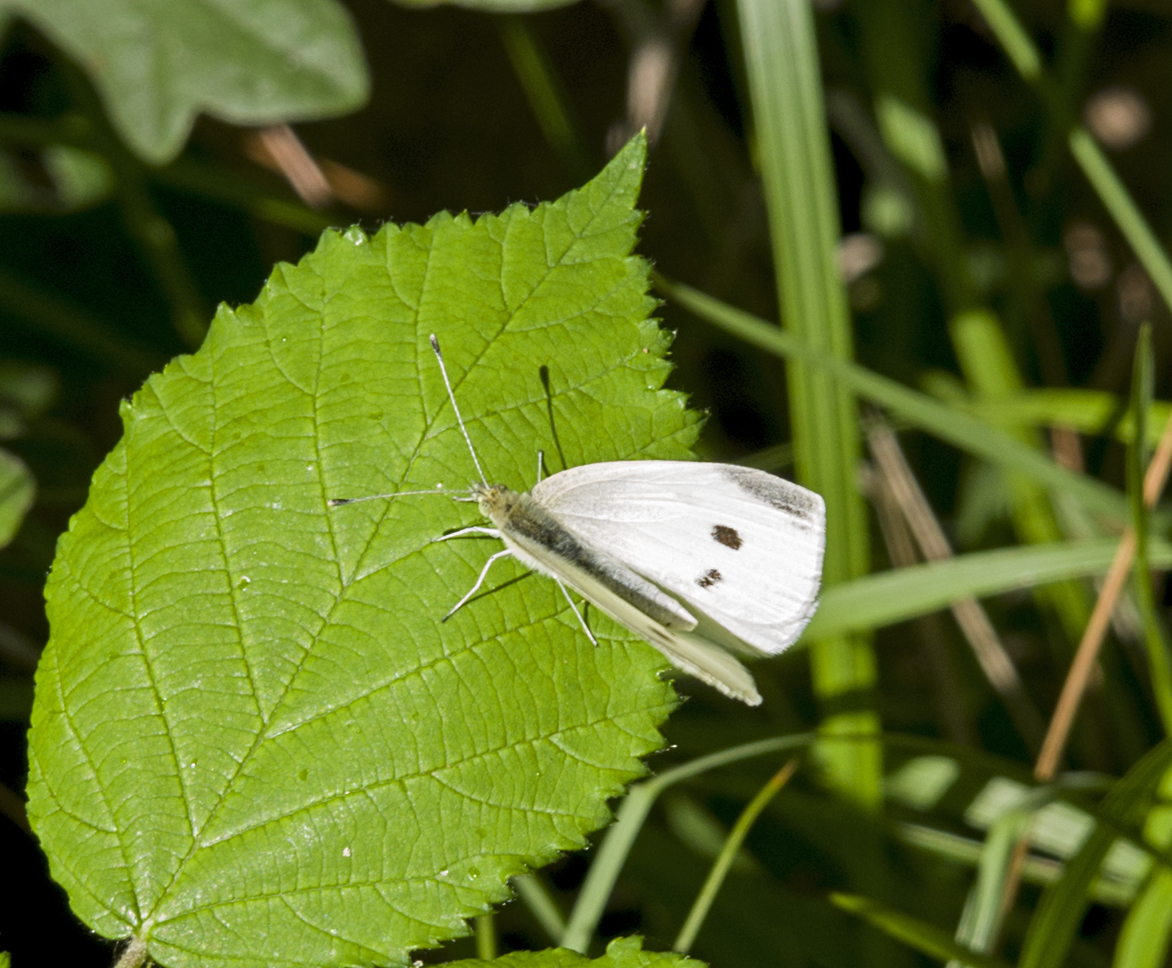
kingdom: Animalia
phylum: Arthropoda
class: Insecta
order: Lepidoptera
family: Pieridae
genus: Pieris
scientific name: Pieris rapae
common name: Small white
